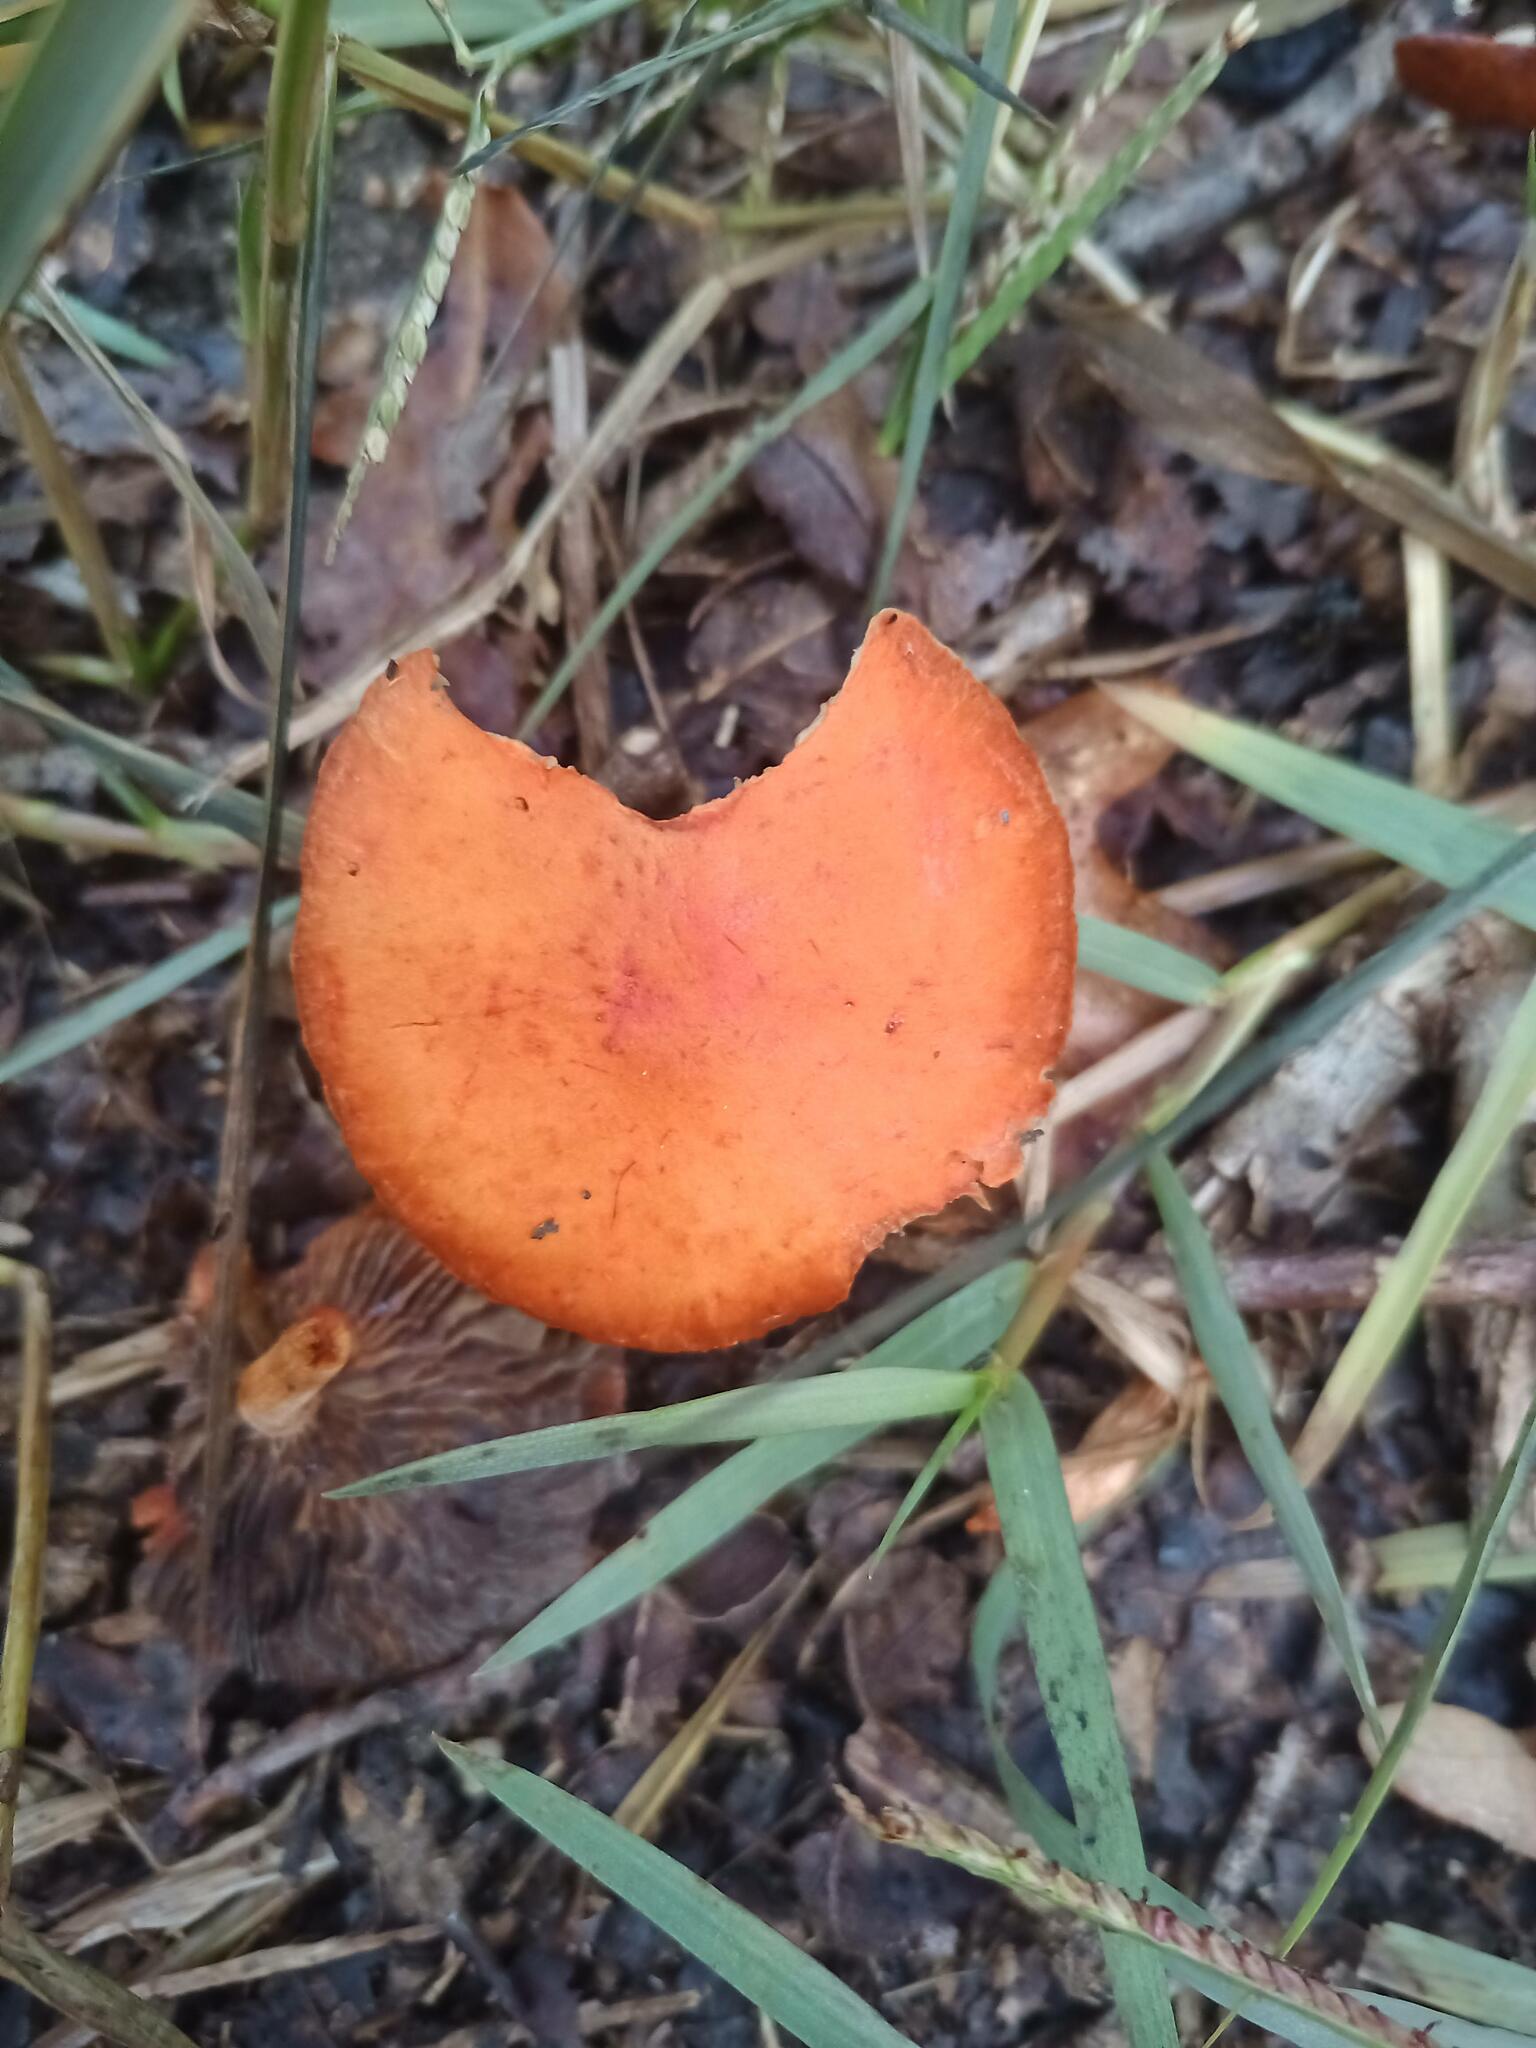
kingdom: Fungi
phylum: Basidiomycota
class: Agaricomycetes
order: Agaricales
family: Strophariaceae
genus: Leratiomyces
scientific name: Leratiomyces ceres
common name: Redlead roundhead
